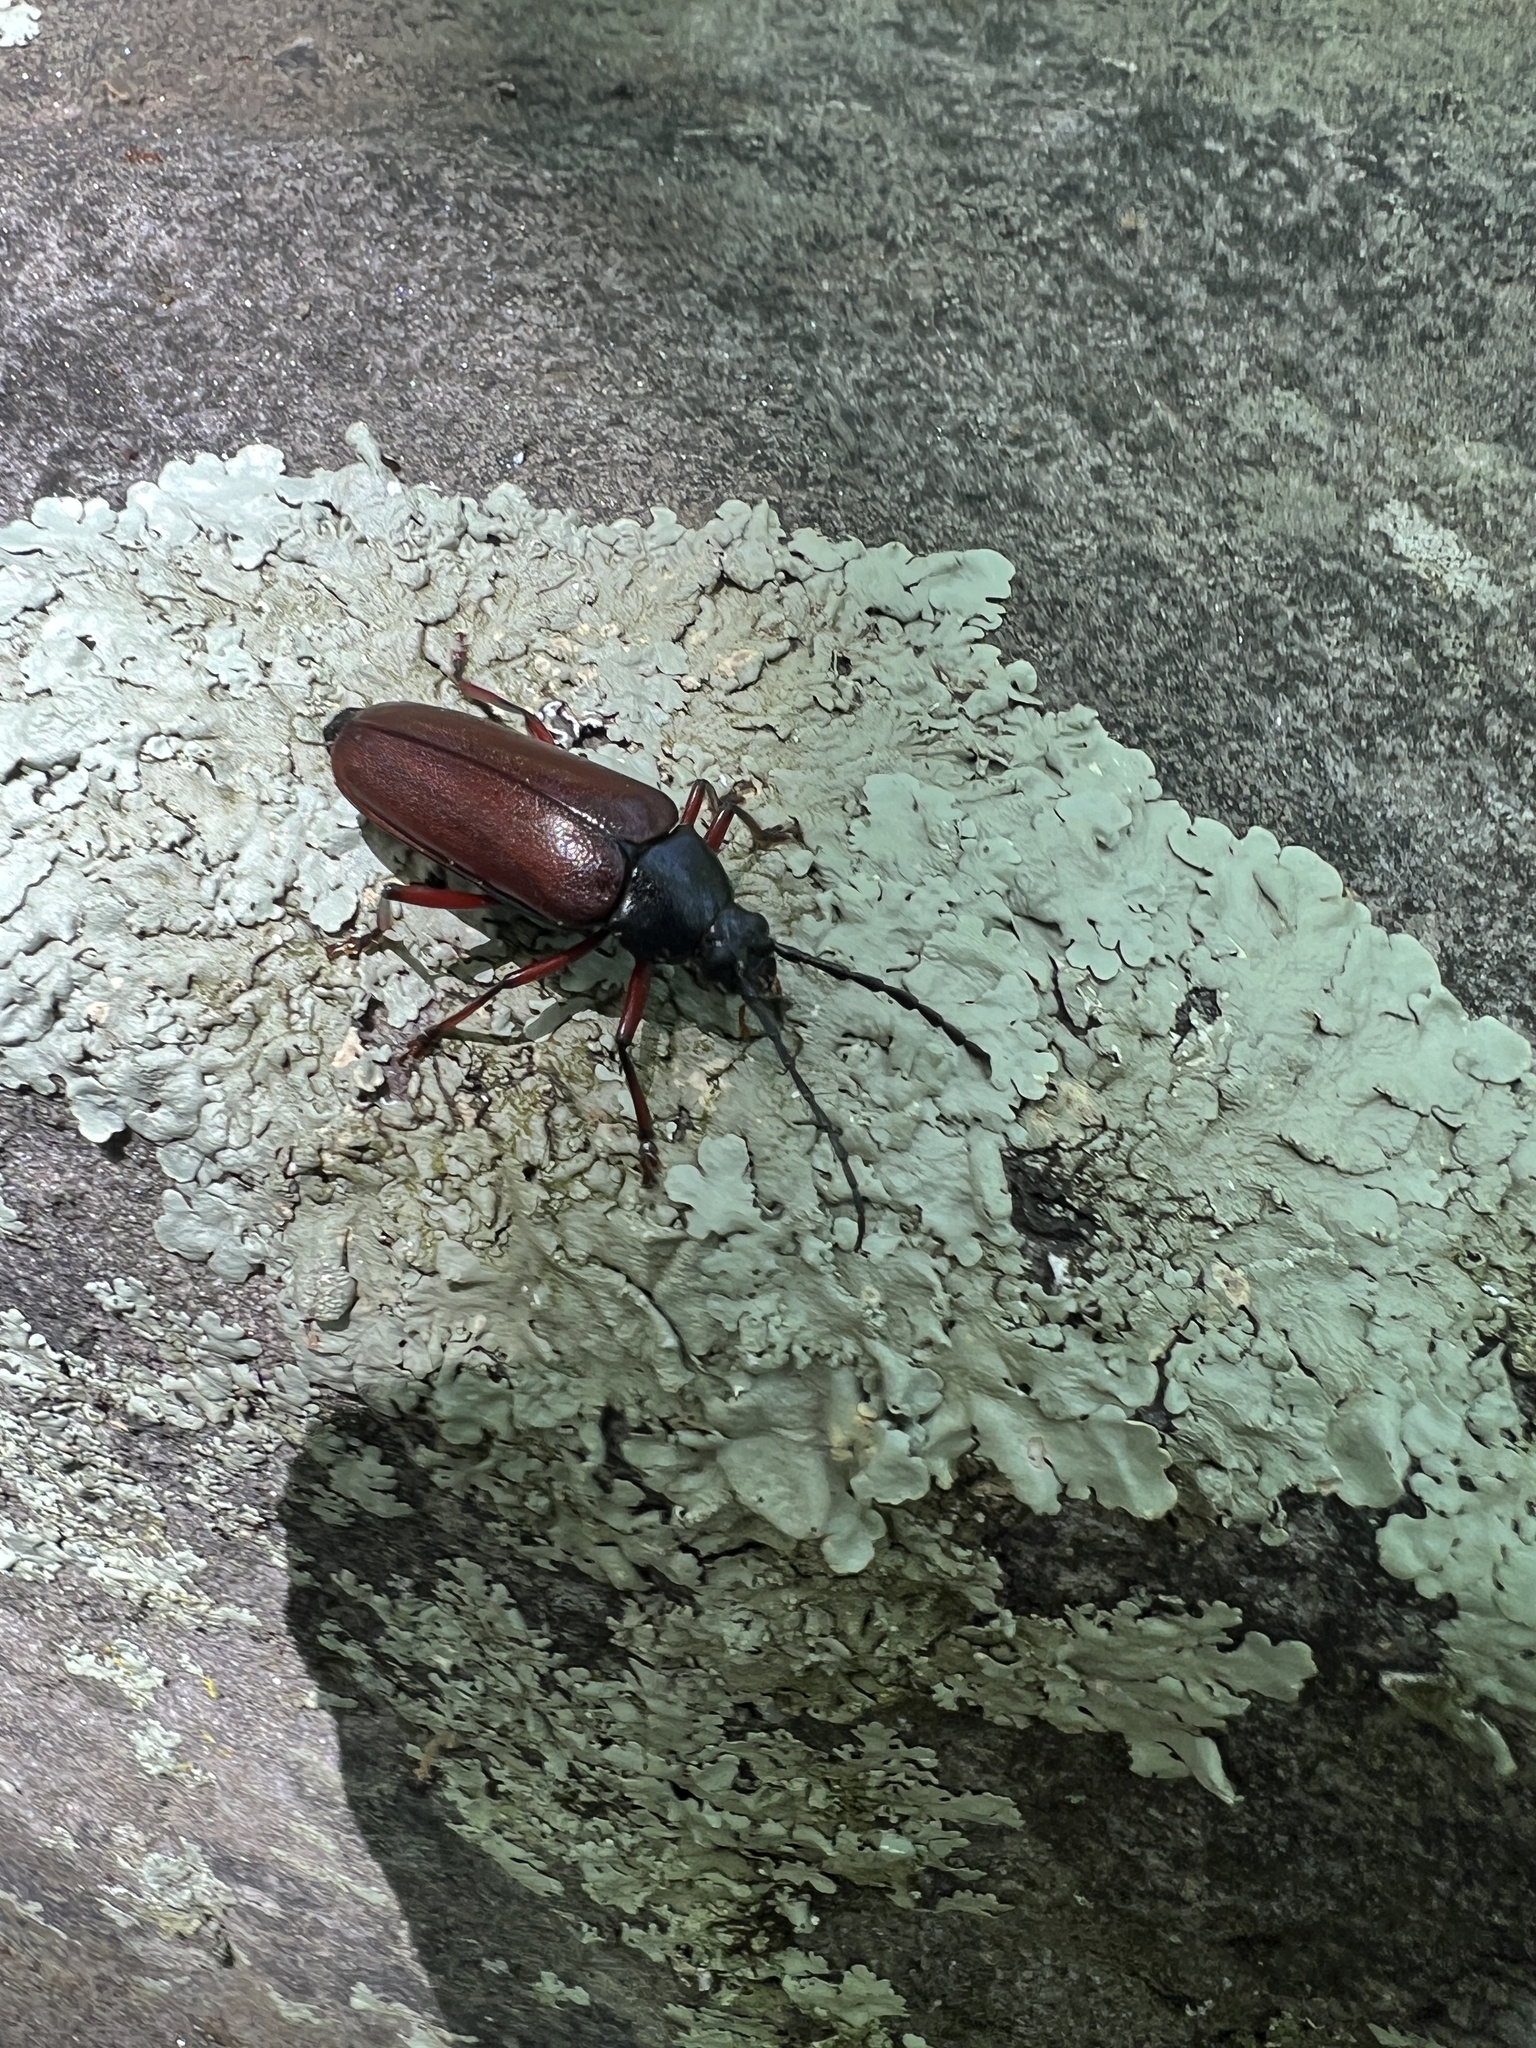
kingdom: Animalia
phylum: Arthropoda
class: Insecta
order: Coleoptera
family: Cerambycidae
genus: Sphenostethus
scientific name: Sphenostethus taslei
